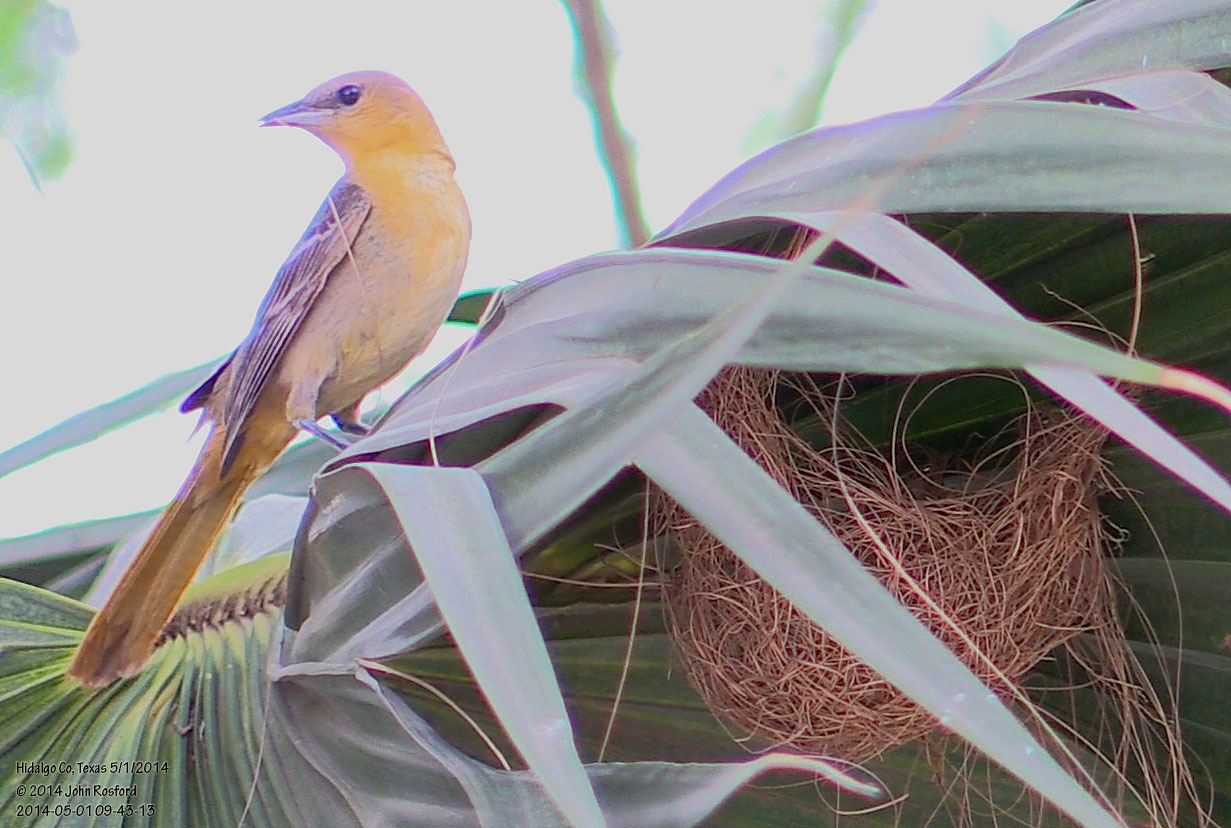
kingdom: Animalia
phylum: Chordata
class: Aves
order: Passeriformes
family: Icteridae
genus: Icterus
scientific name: Icterus cucullatus
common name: Hooded oriole
